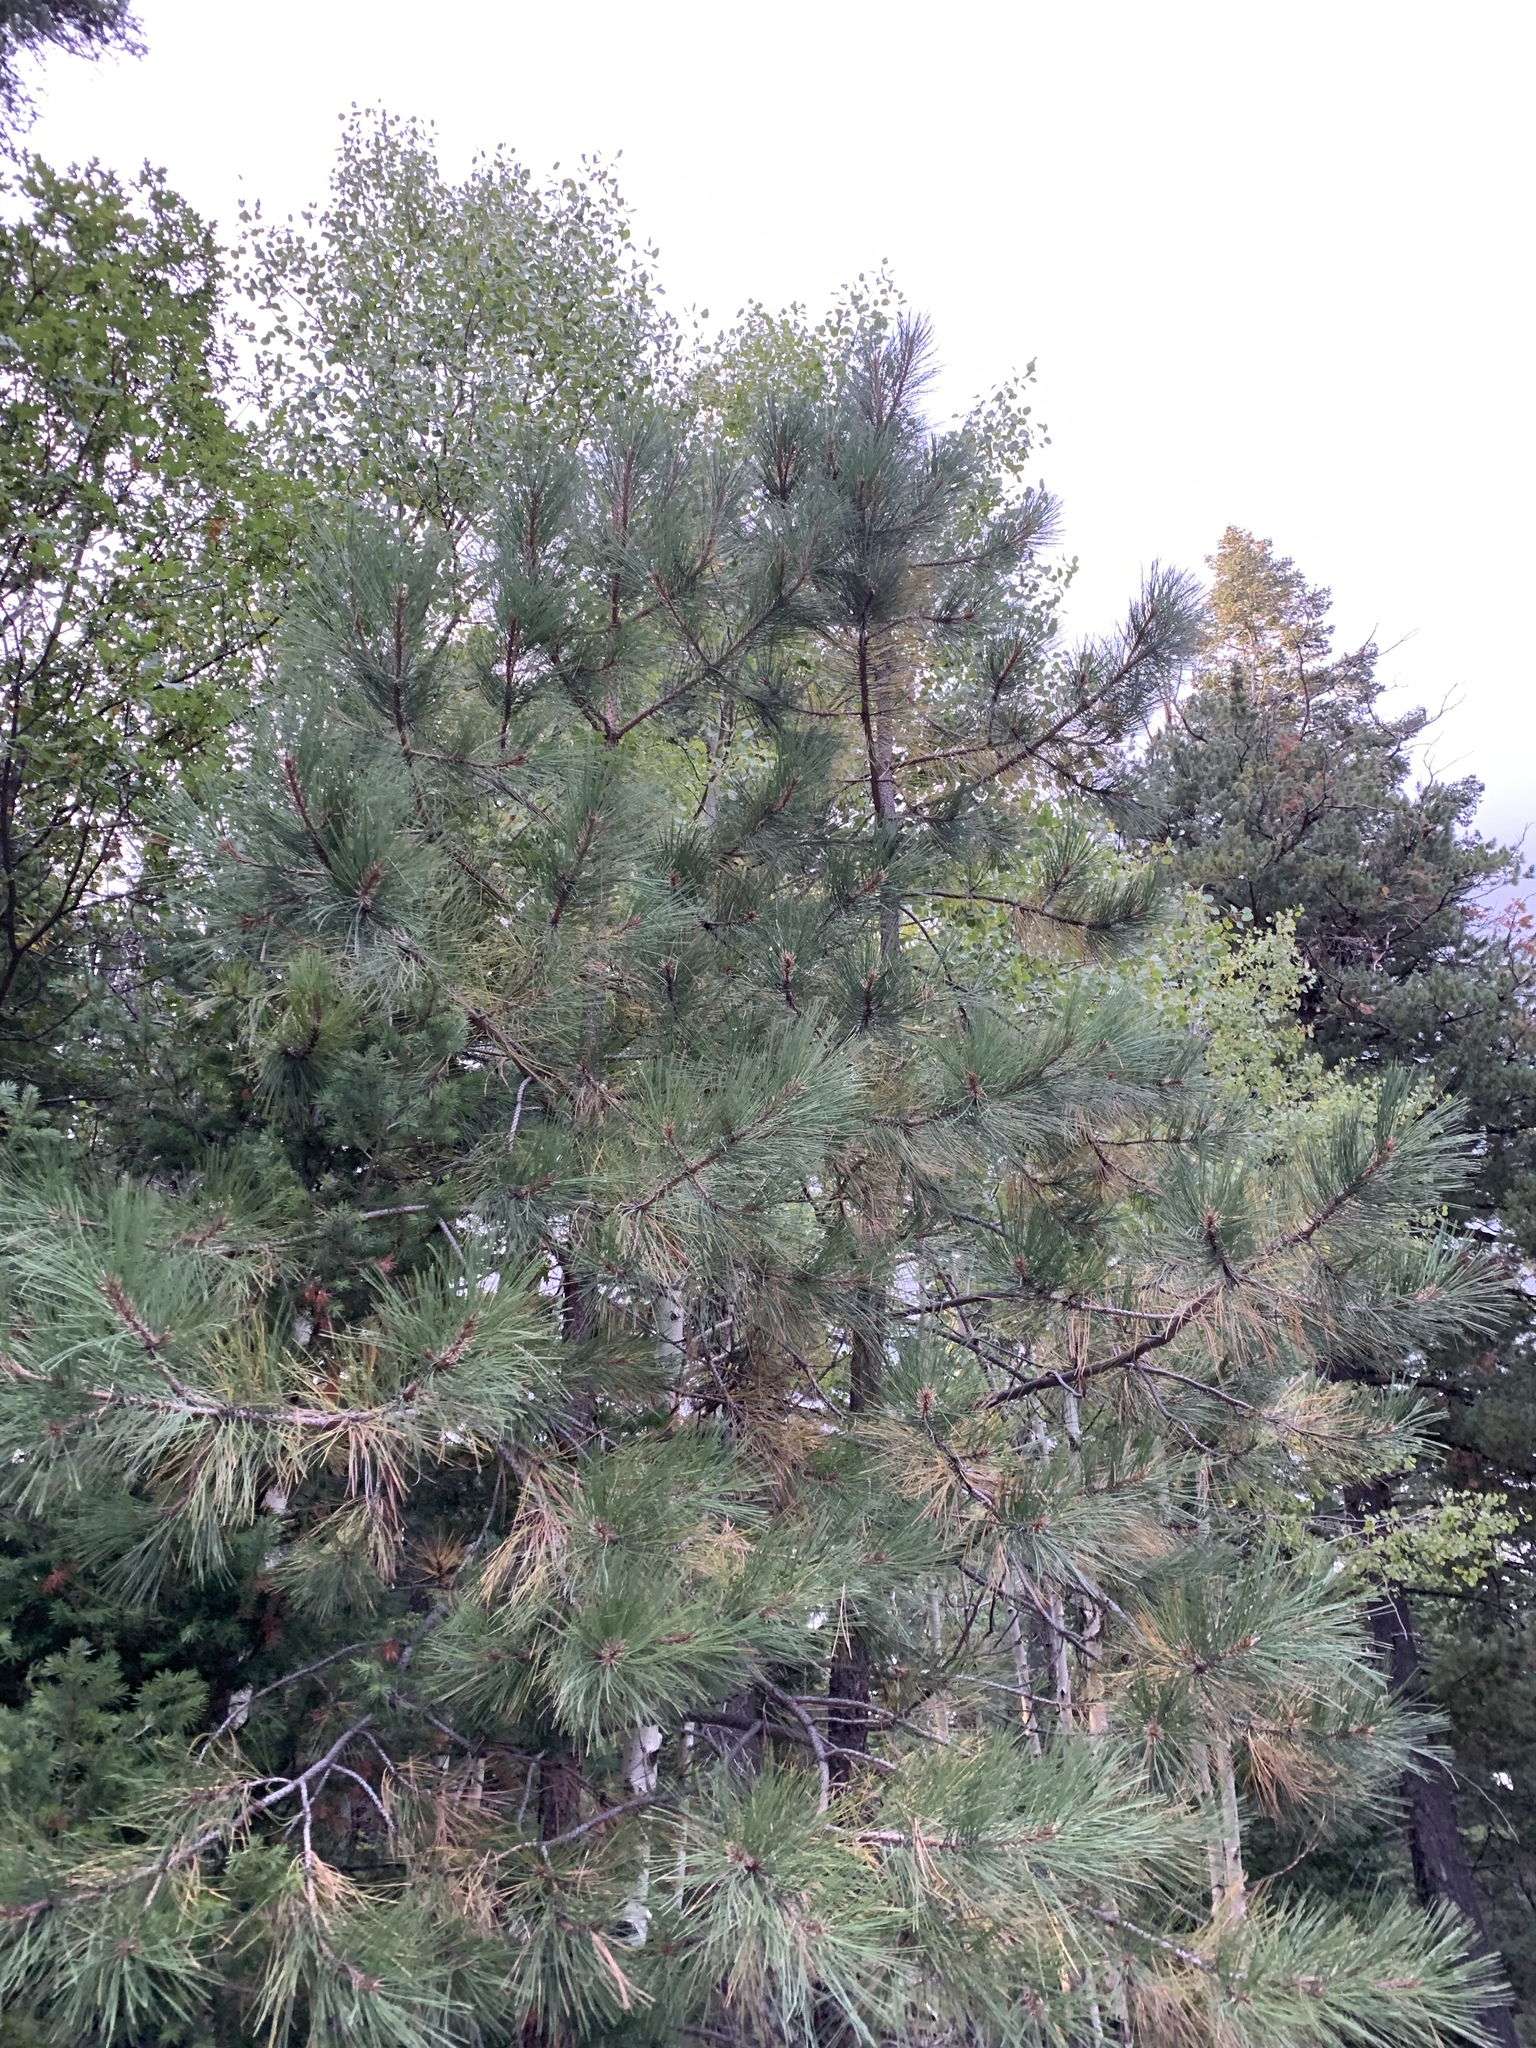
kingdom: Plantae
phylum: Tracheophyta
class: Pinopsida
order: Pinales
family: Pinaceae
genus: Pinus
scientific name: Pinus ponderosa
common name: Western yellow-pine
